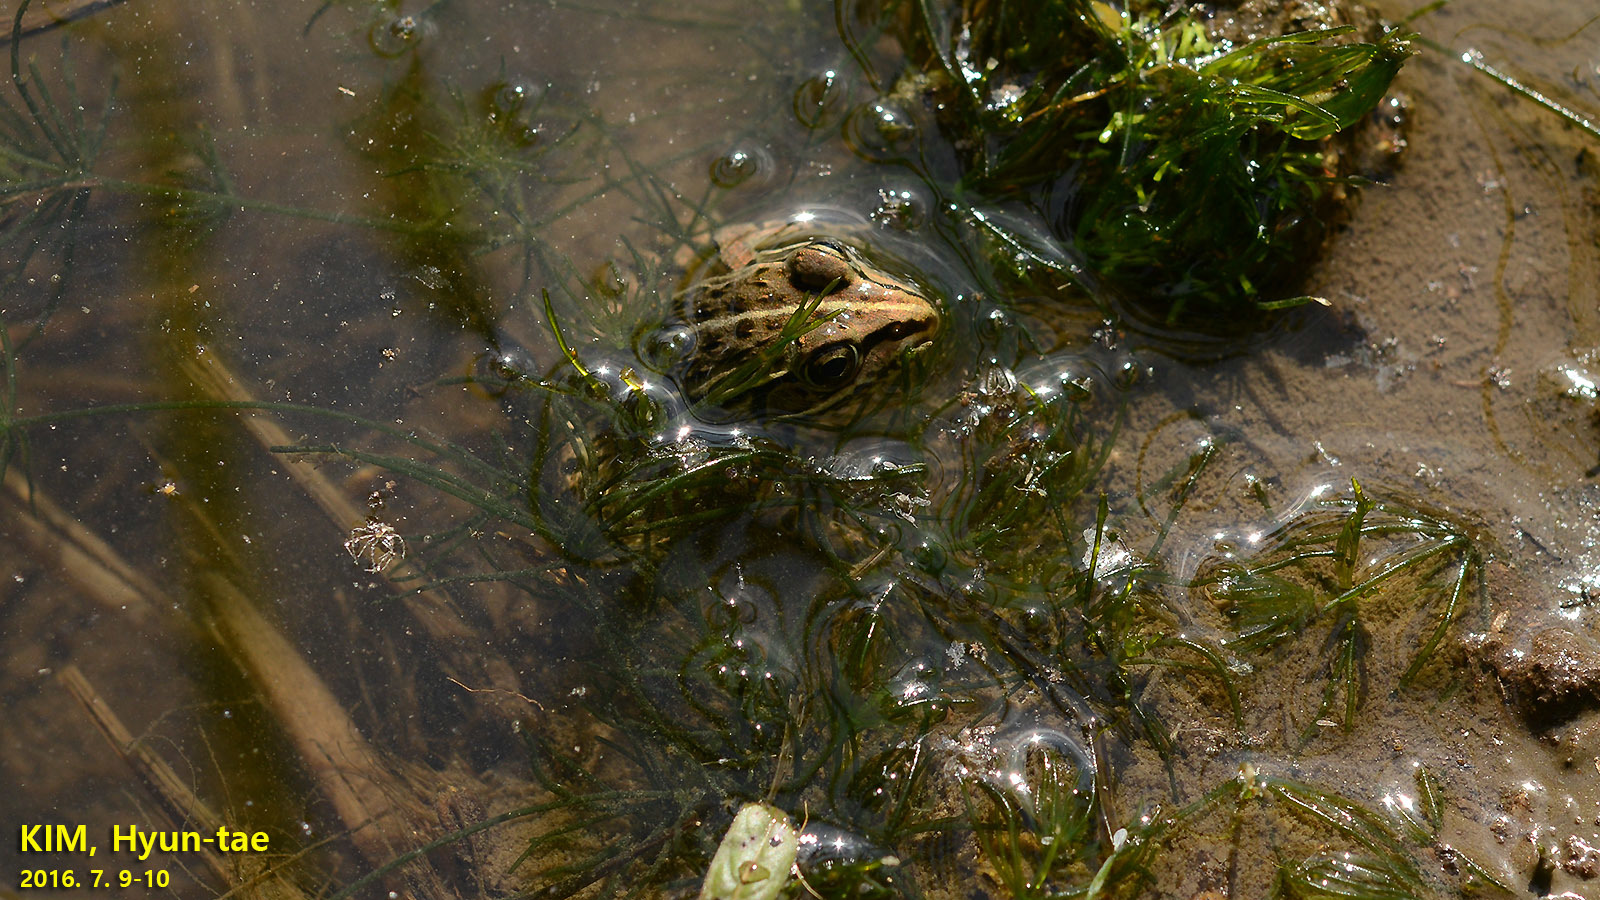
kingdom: Animalia
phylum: Chordata
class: Amphibia
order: Anura
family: Ranidae
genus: Pelophylax
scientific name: Pelophylax nigromaculatus
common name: Black-spotted pond frog
